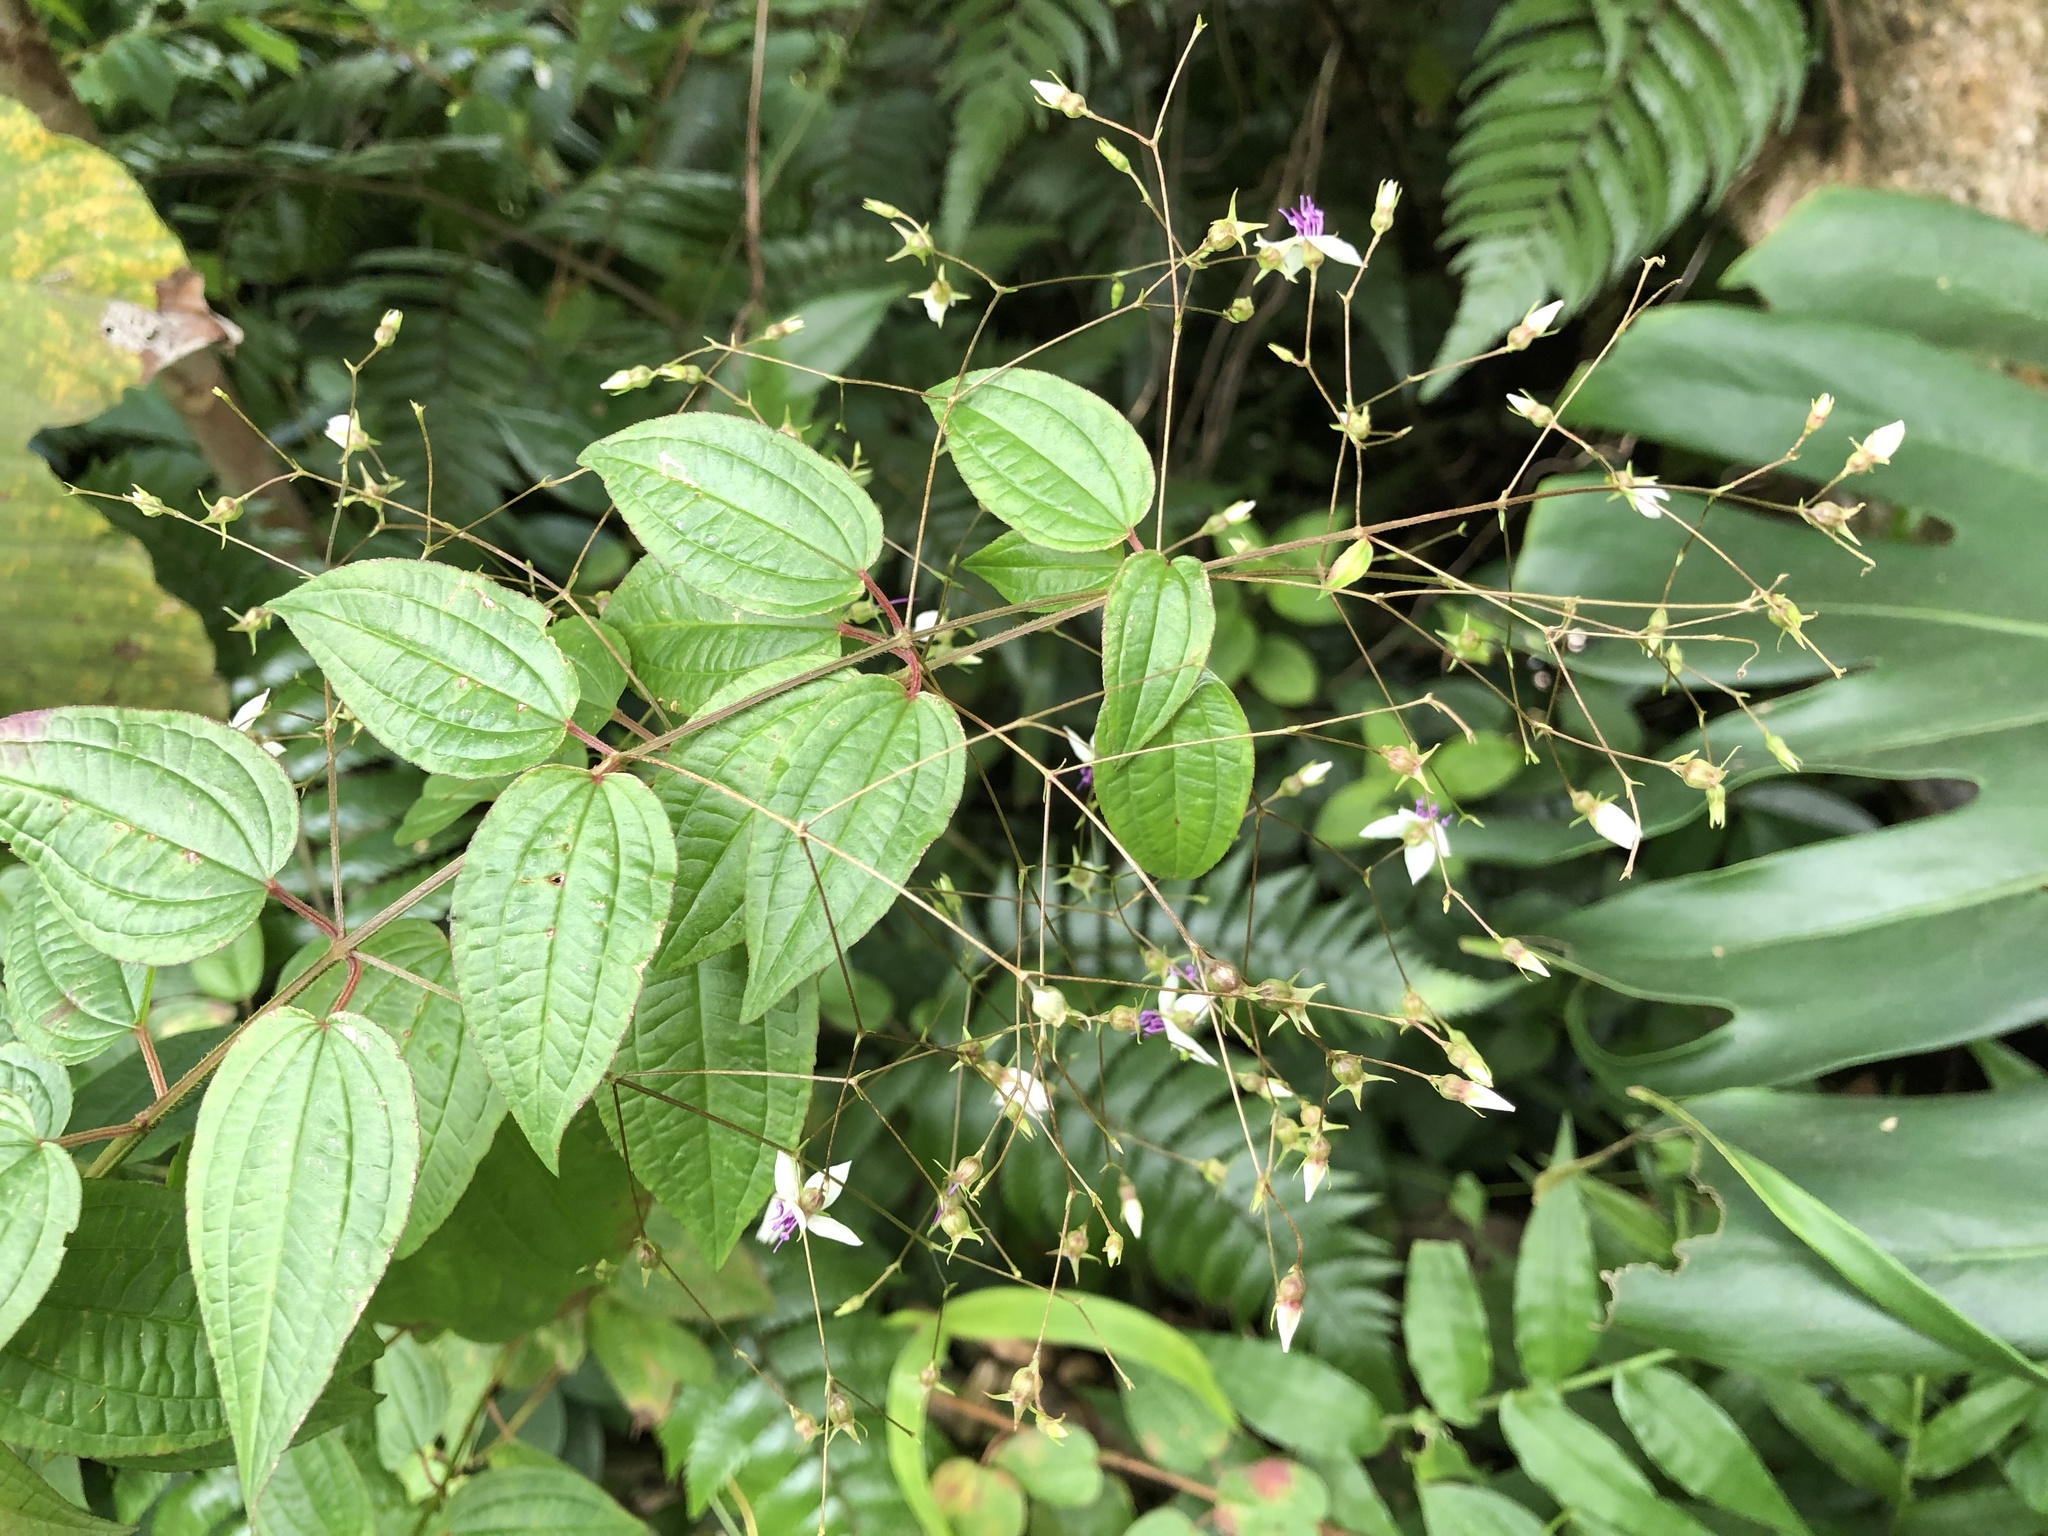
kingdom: Plantae
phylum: Tracheophyta
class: Magnoliopsida
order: Myrtales
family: Melastomataceae
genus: Nepsera
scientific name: Nepsera aquatica
